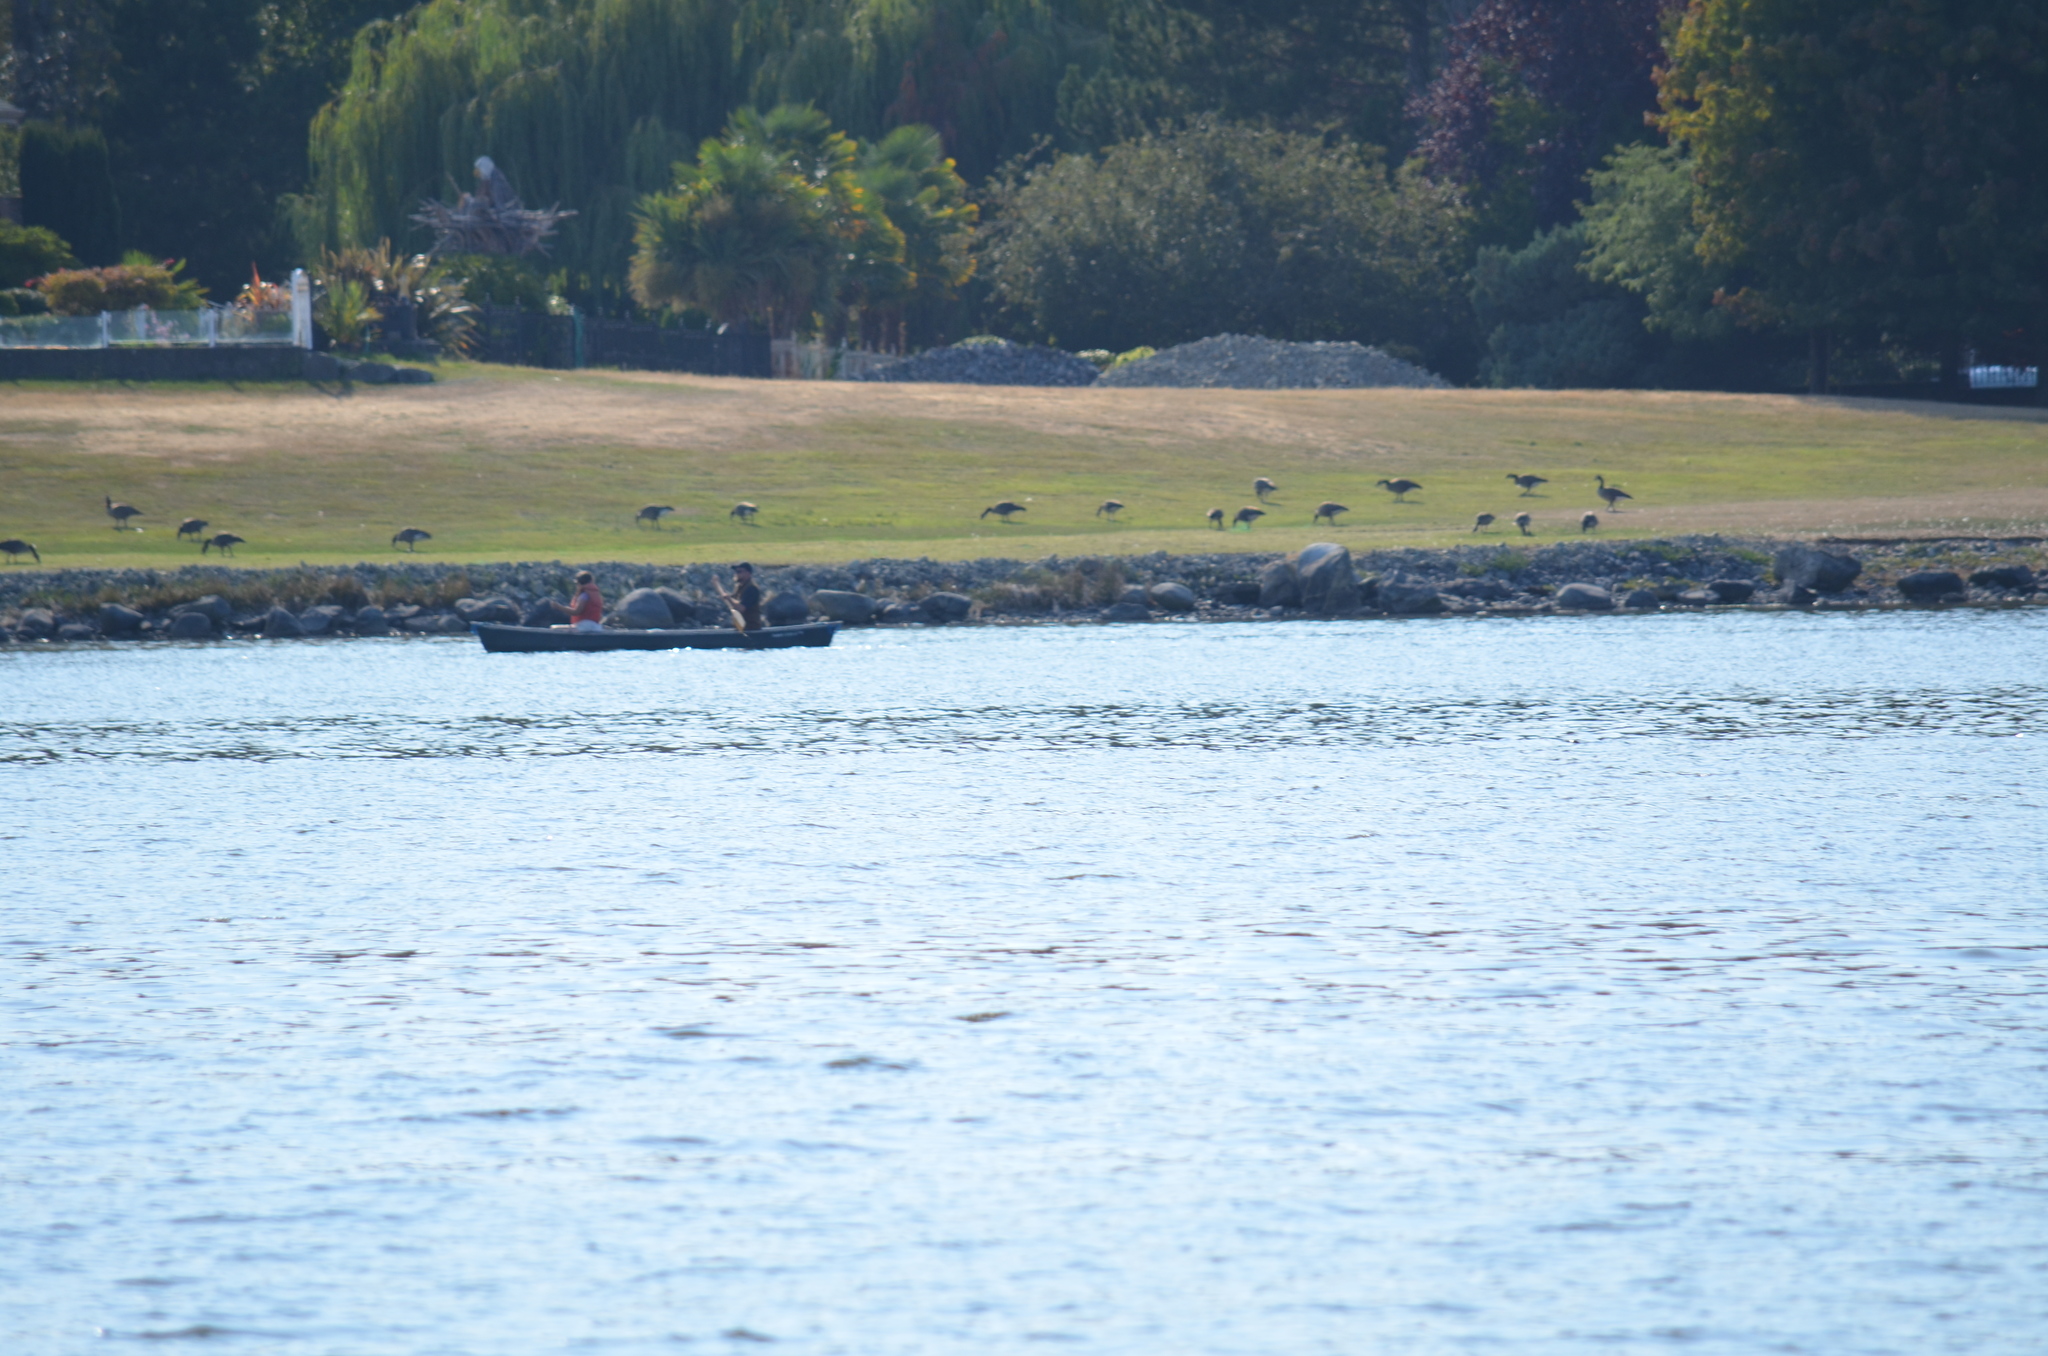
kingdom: Animalia
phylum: Chordata
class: Aves
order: Anseriformes
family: Anatidae
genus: Branta
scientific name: Branta canadensis
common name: Canada goose
